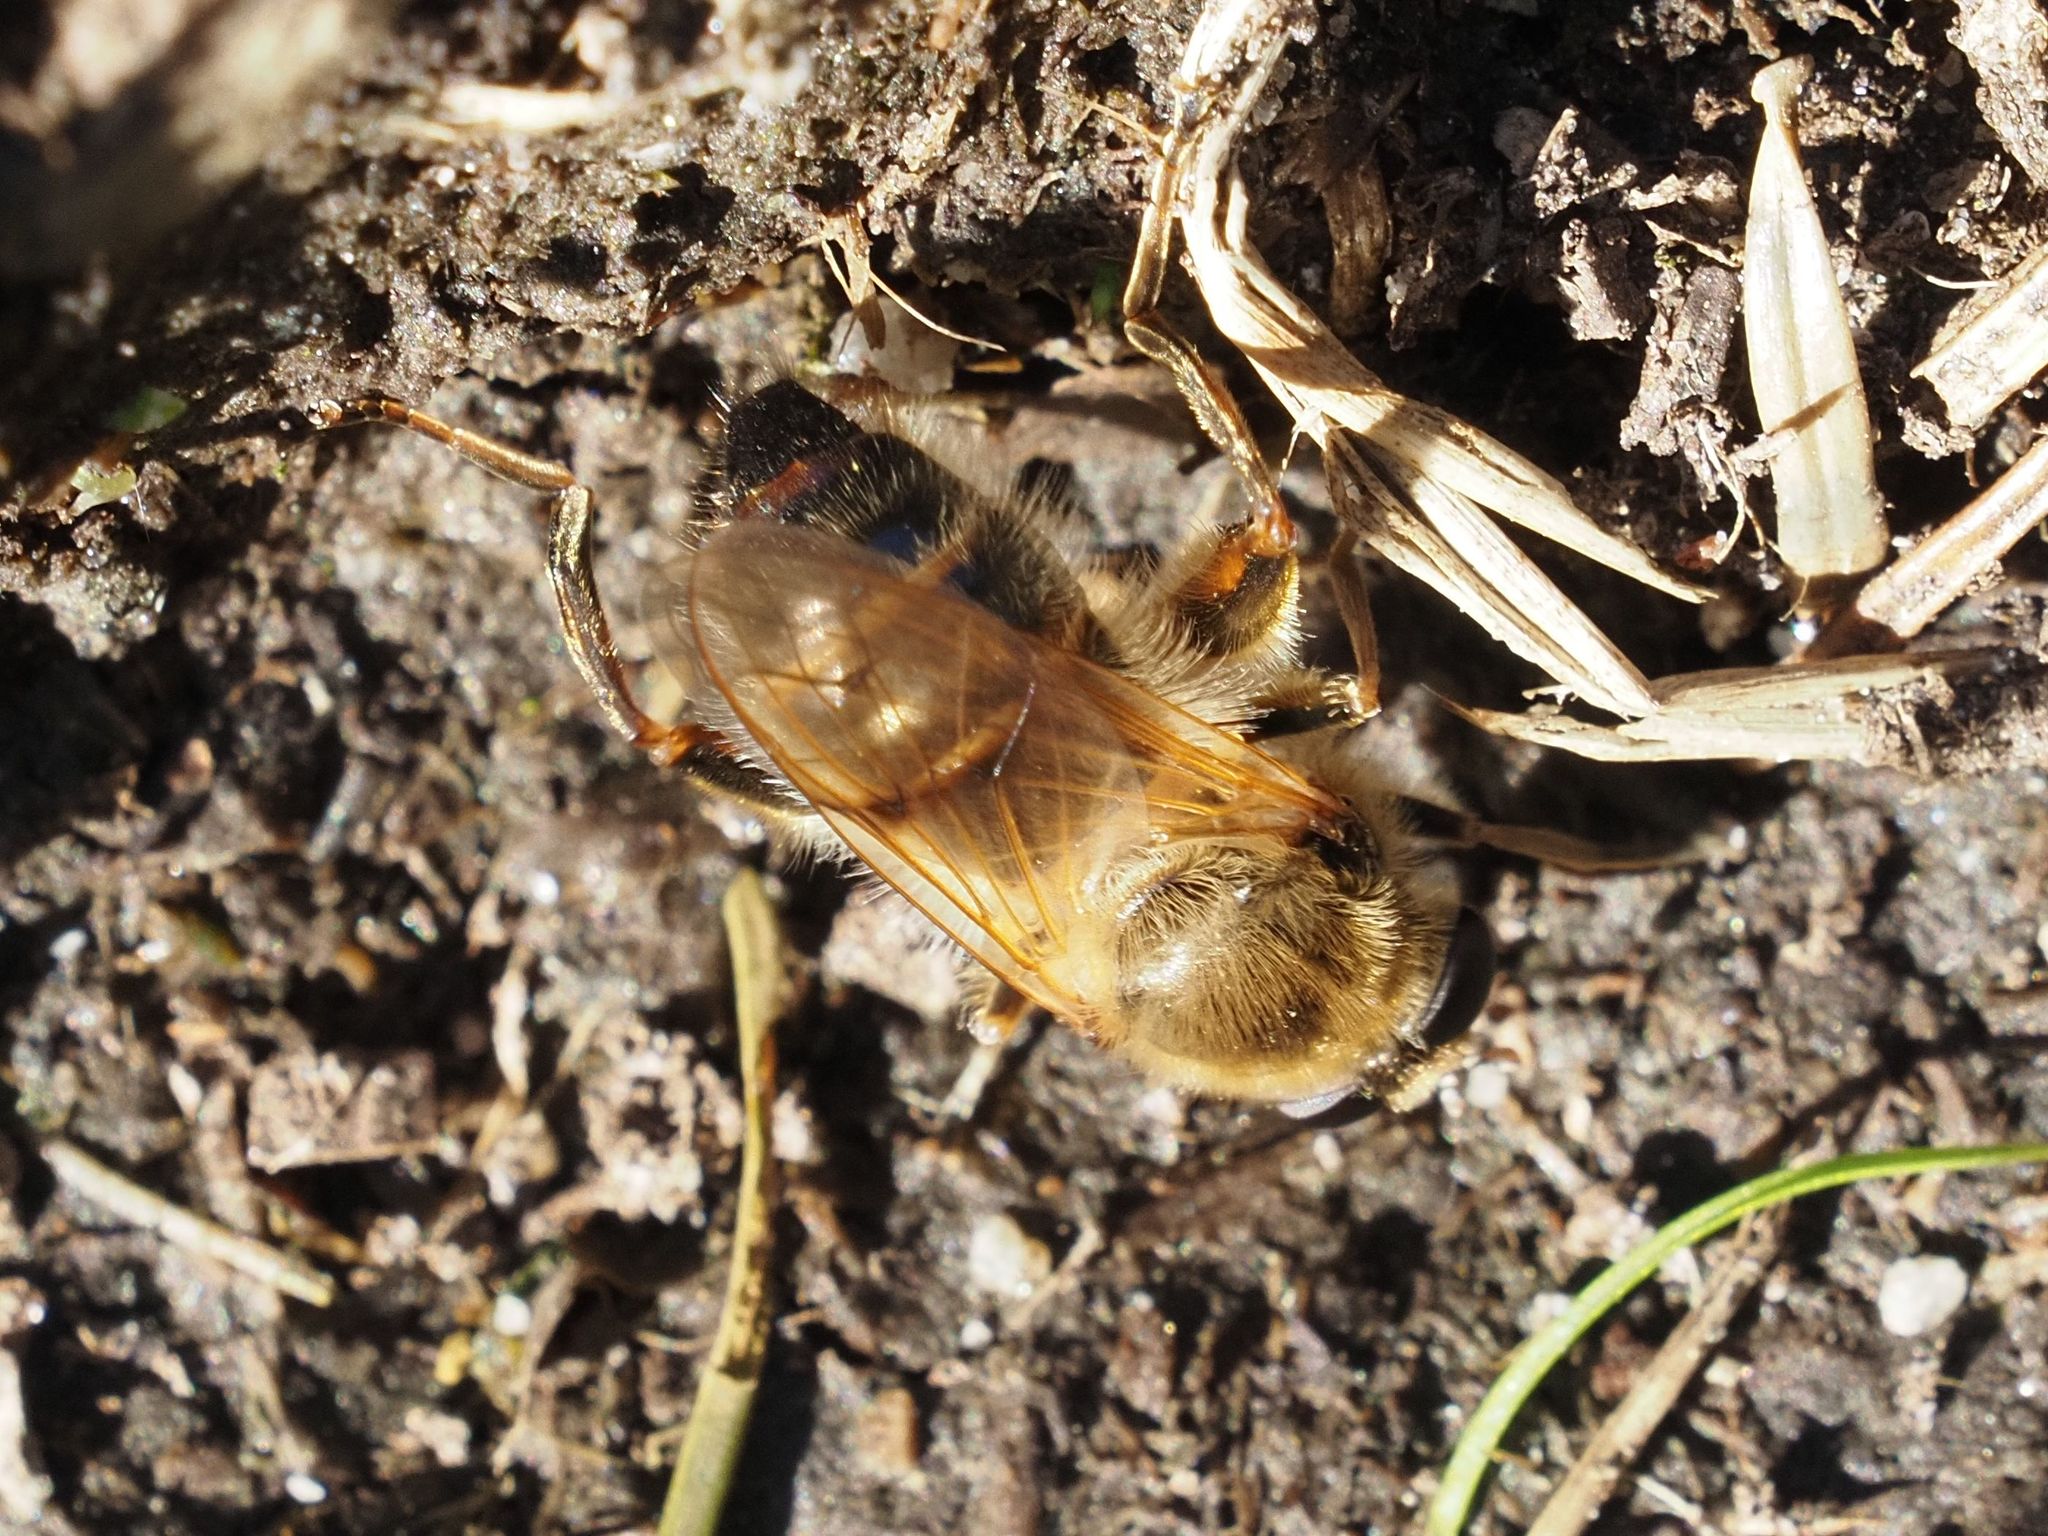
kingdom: Animalia
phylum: Arthropoda
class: Insecta
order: Diptera
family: Syrphidae
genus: Brachypalpus
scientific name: Brachypalpus valgus
